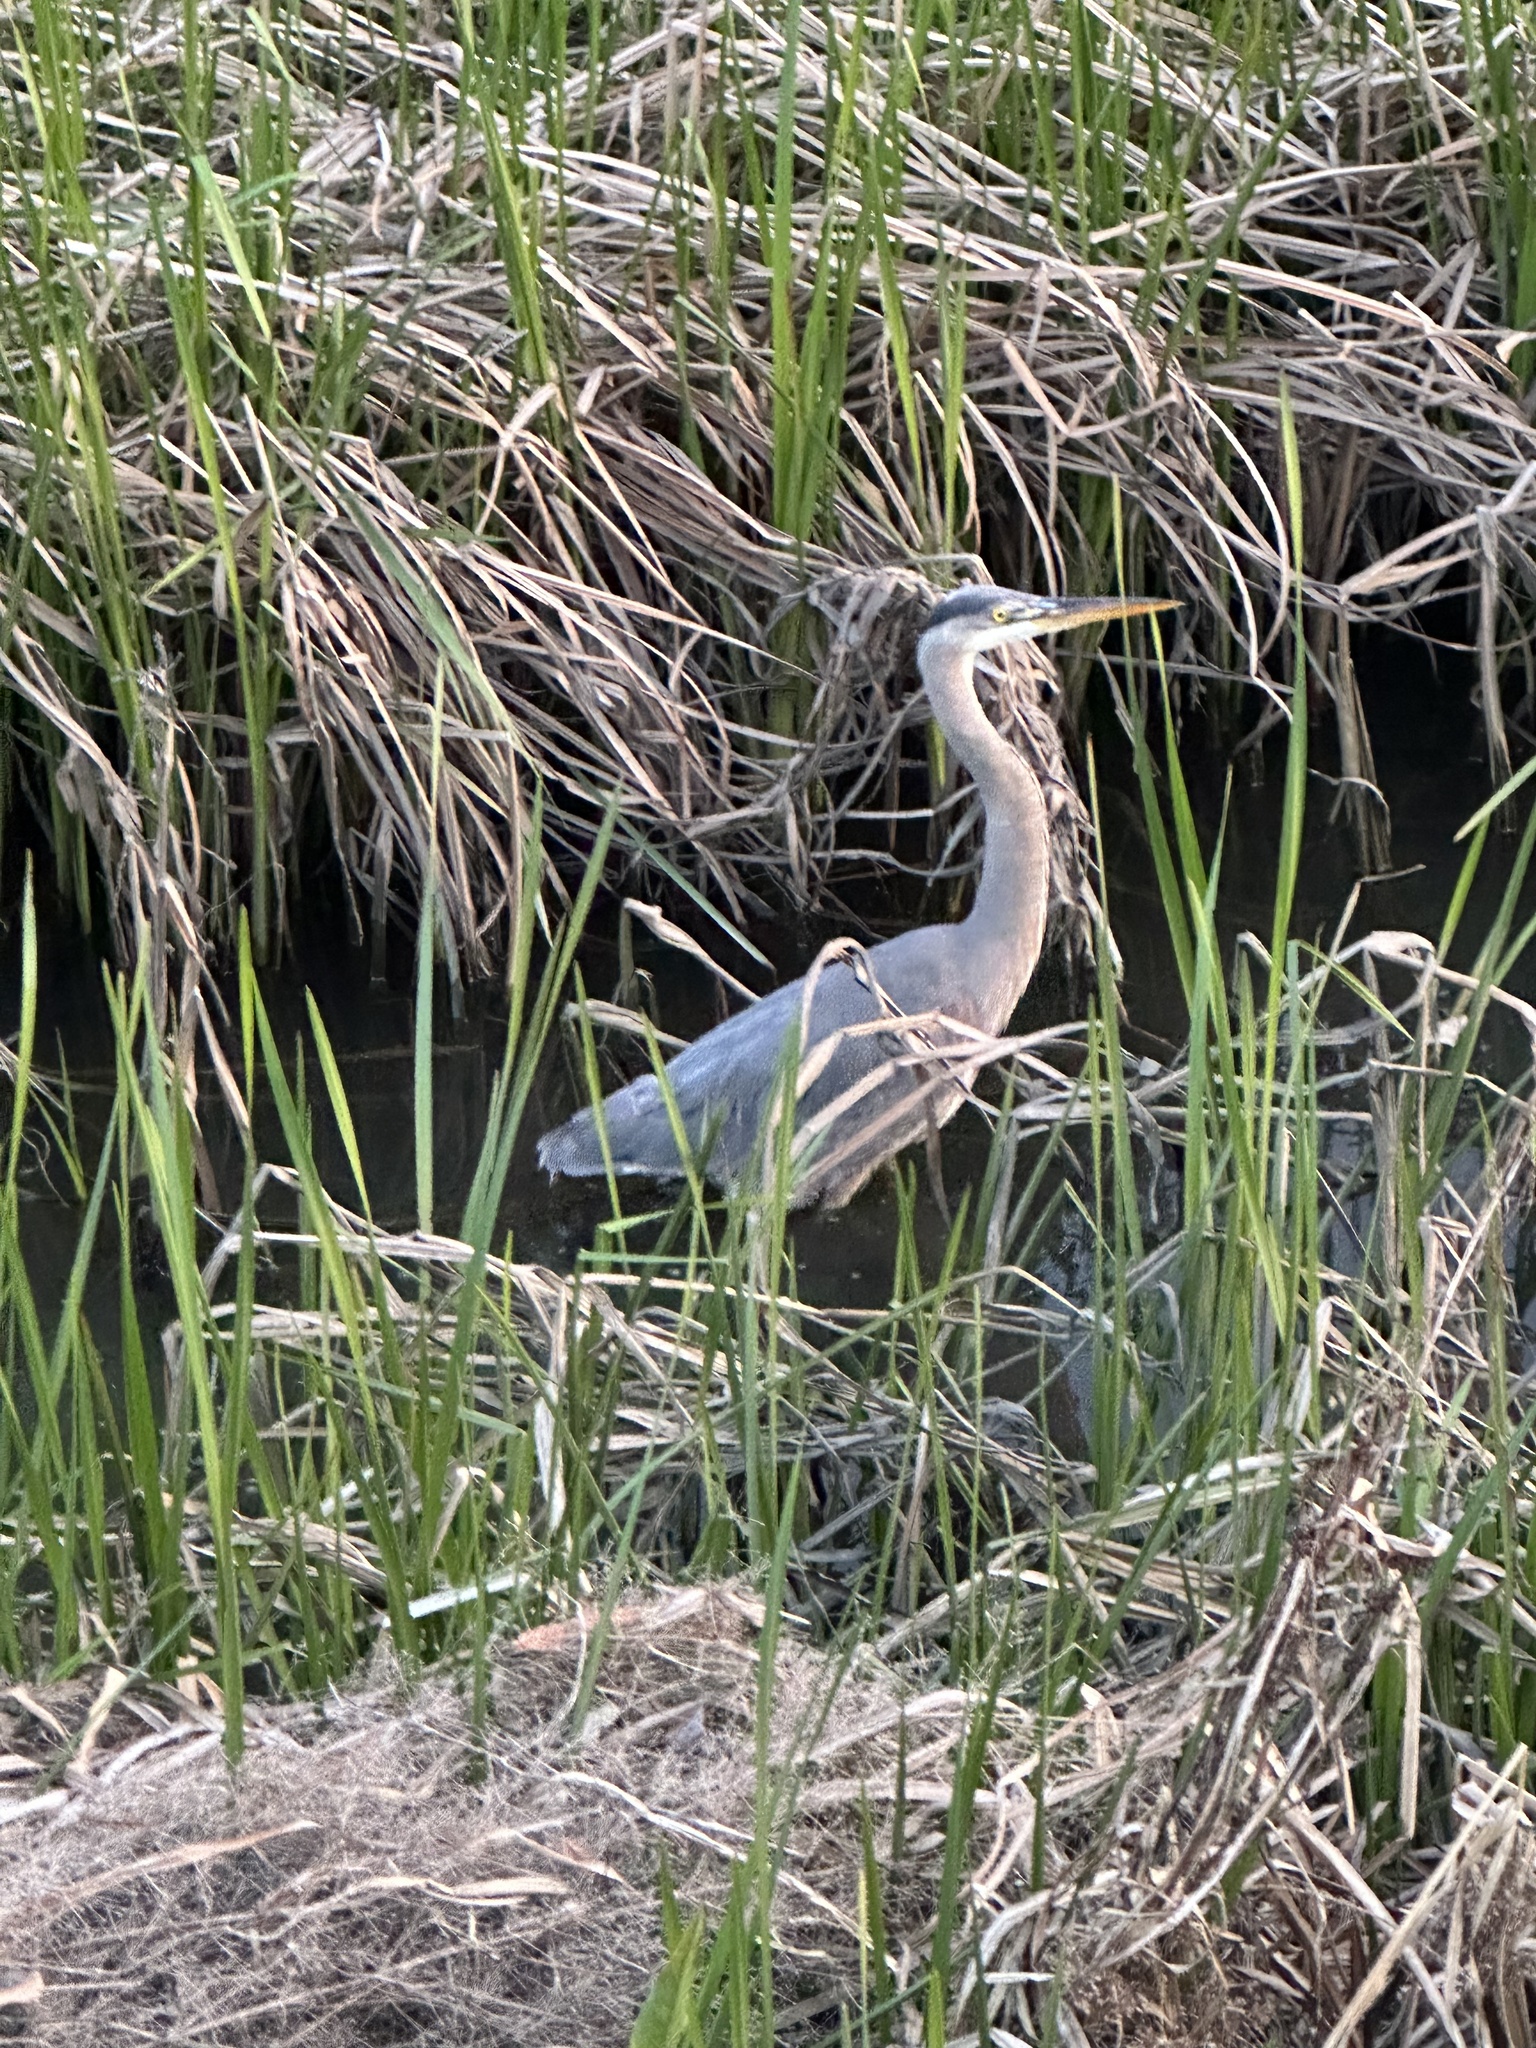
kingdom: Animalia
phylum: Chordata
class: Aves
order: Pelecaniformes
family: Ardeidae
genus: Ardea
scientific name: Ardea herodias
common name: Great blue heron
